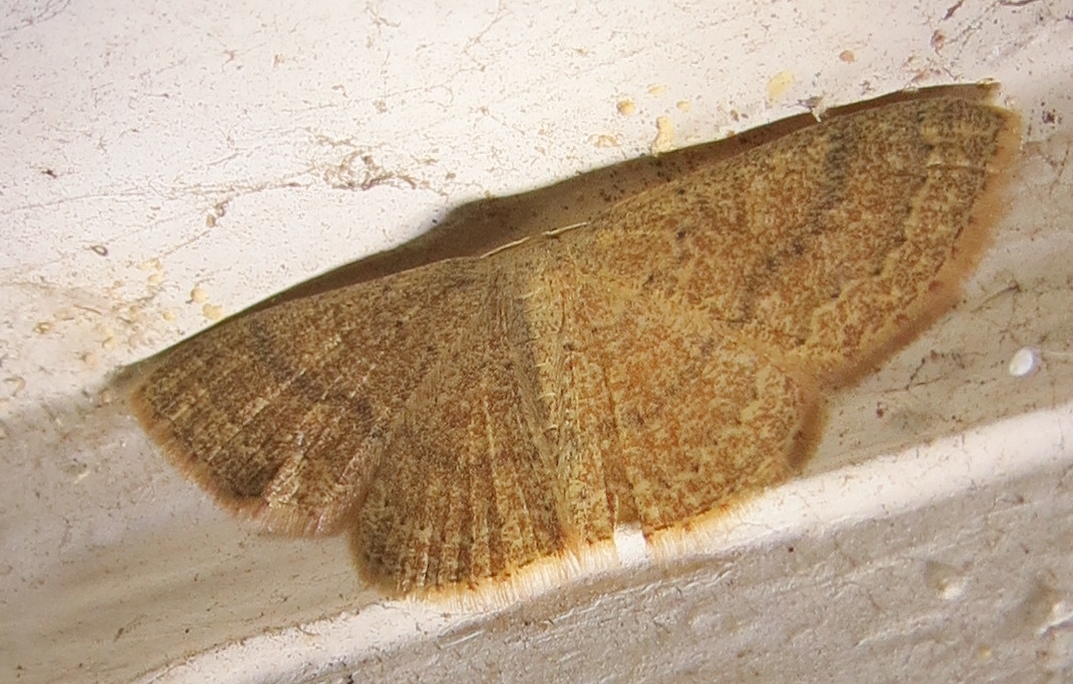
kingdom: Animalia
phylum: Arthropoda
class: Insecta
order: Lepidoptera
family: Geometridae
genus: Pleuroprucha
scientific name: Pleuroprucha insulsaria
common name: Common tan wave
